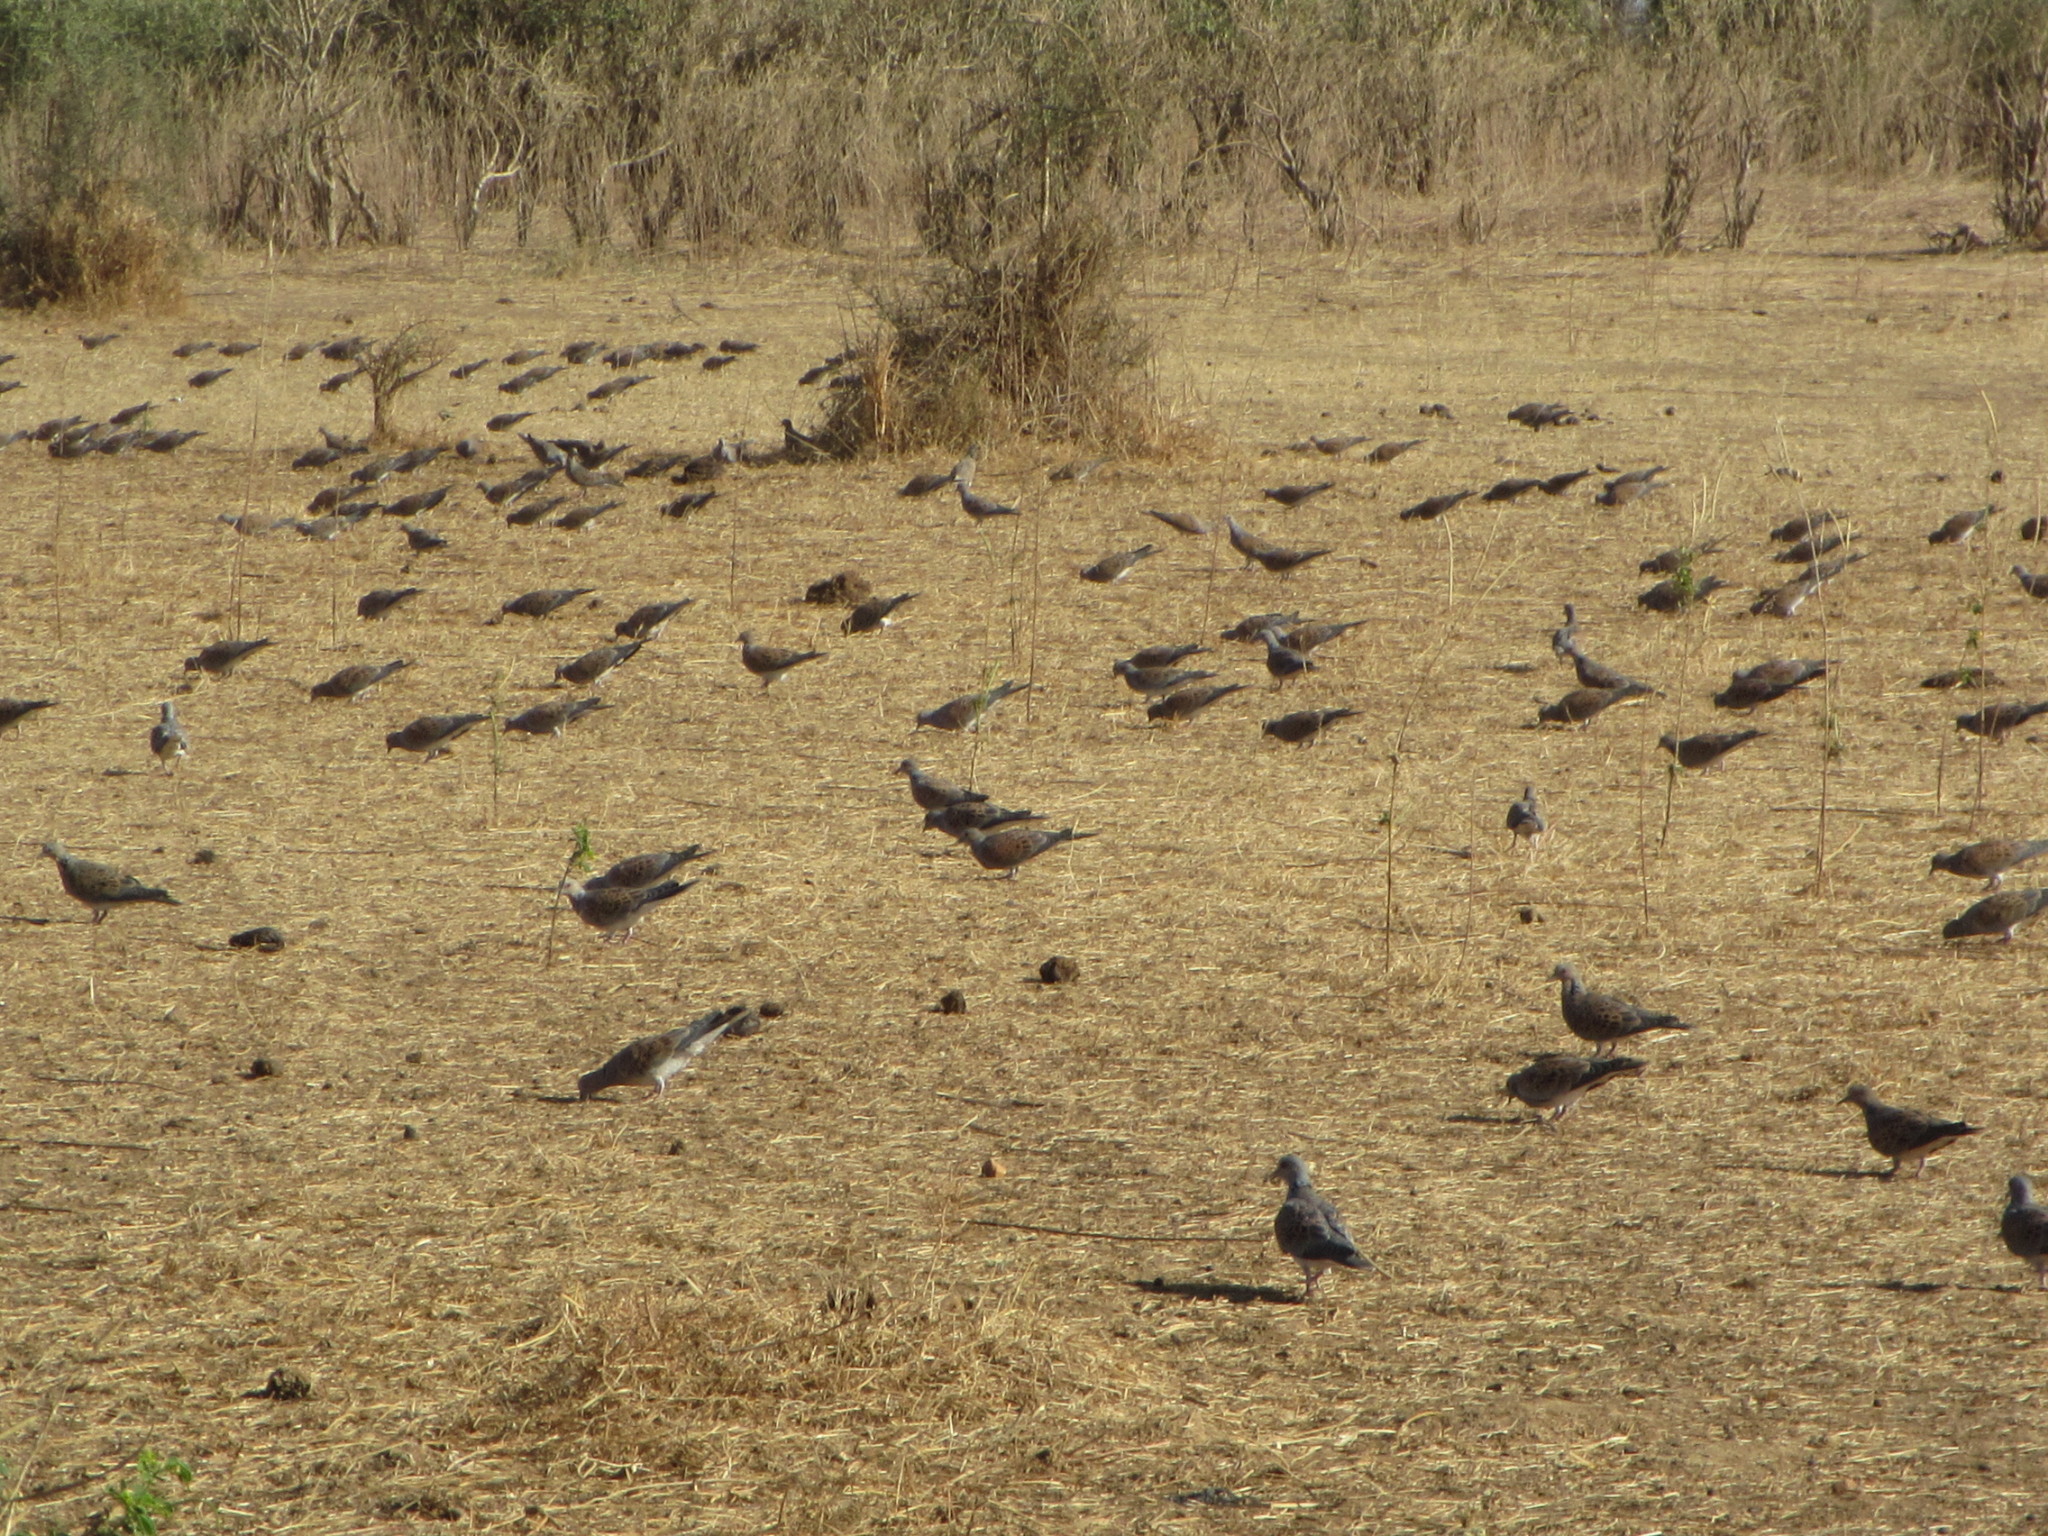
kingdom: Animalia
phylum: Chordata
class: Aves
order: Columbiformes
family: Columbidae
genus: Streptopelia
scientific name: Streptopelia turtur
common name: European turtle dove
